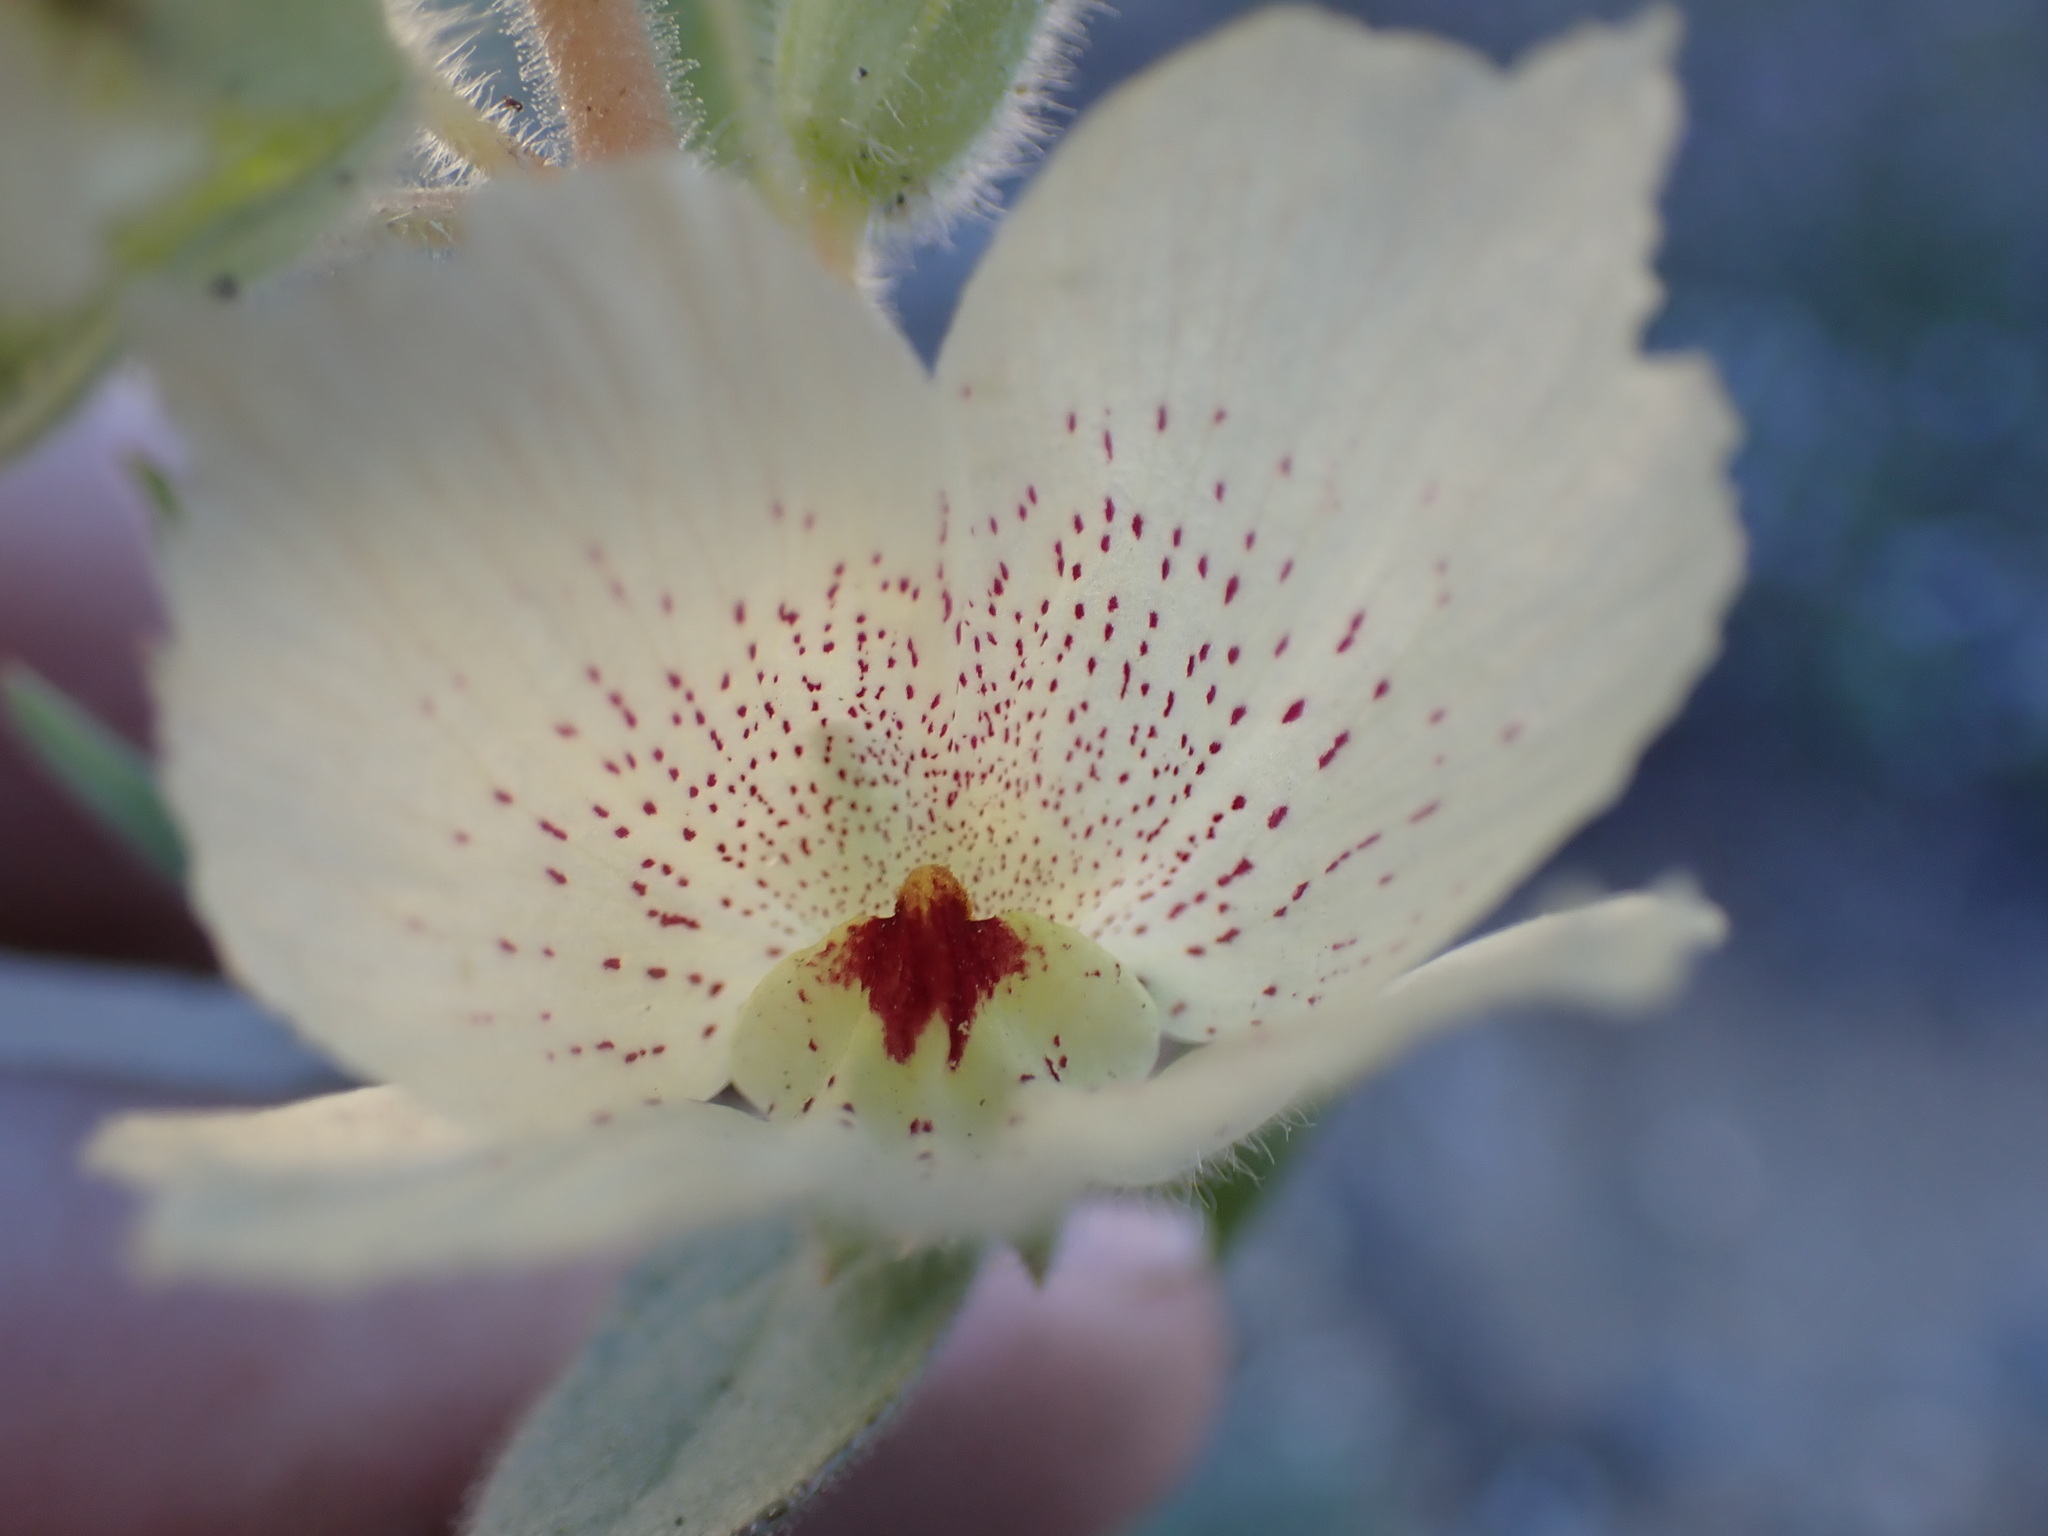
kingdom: Plantae
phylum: Tracheophyta
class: Magnoliopsida
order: Lamiales
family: Plantaginaceae
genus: Mohavea
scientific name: Mohavea confertiflora
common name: Ghost flower
